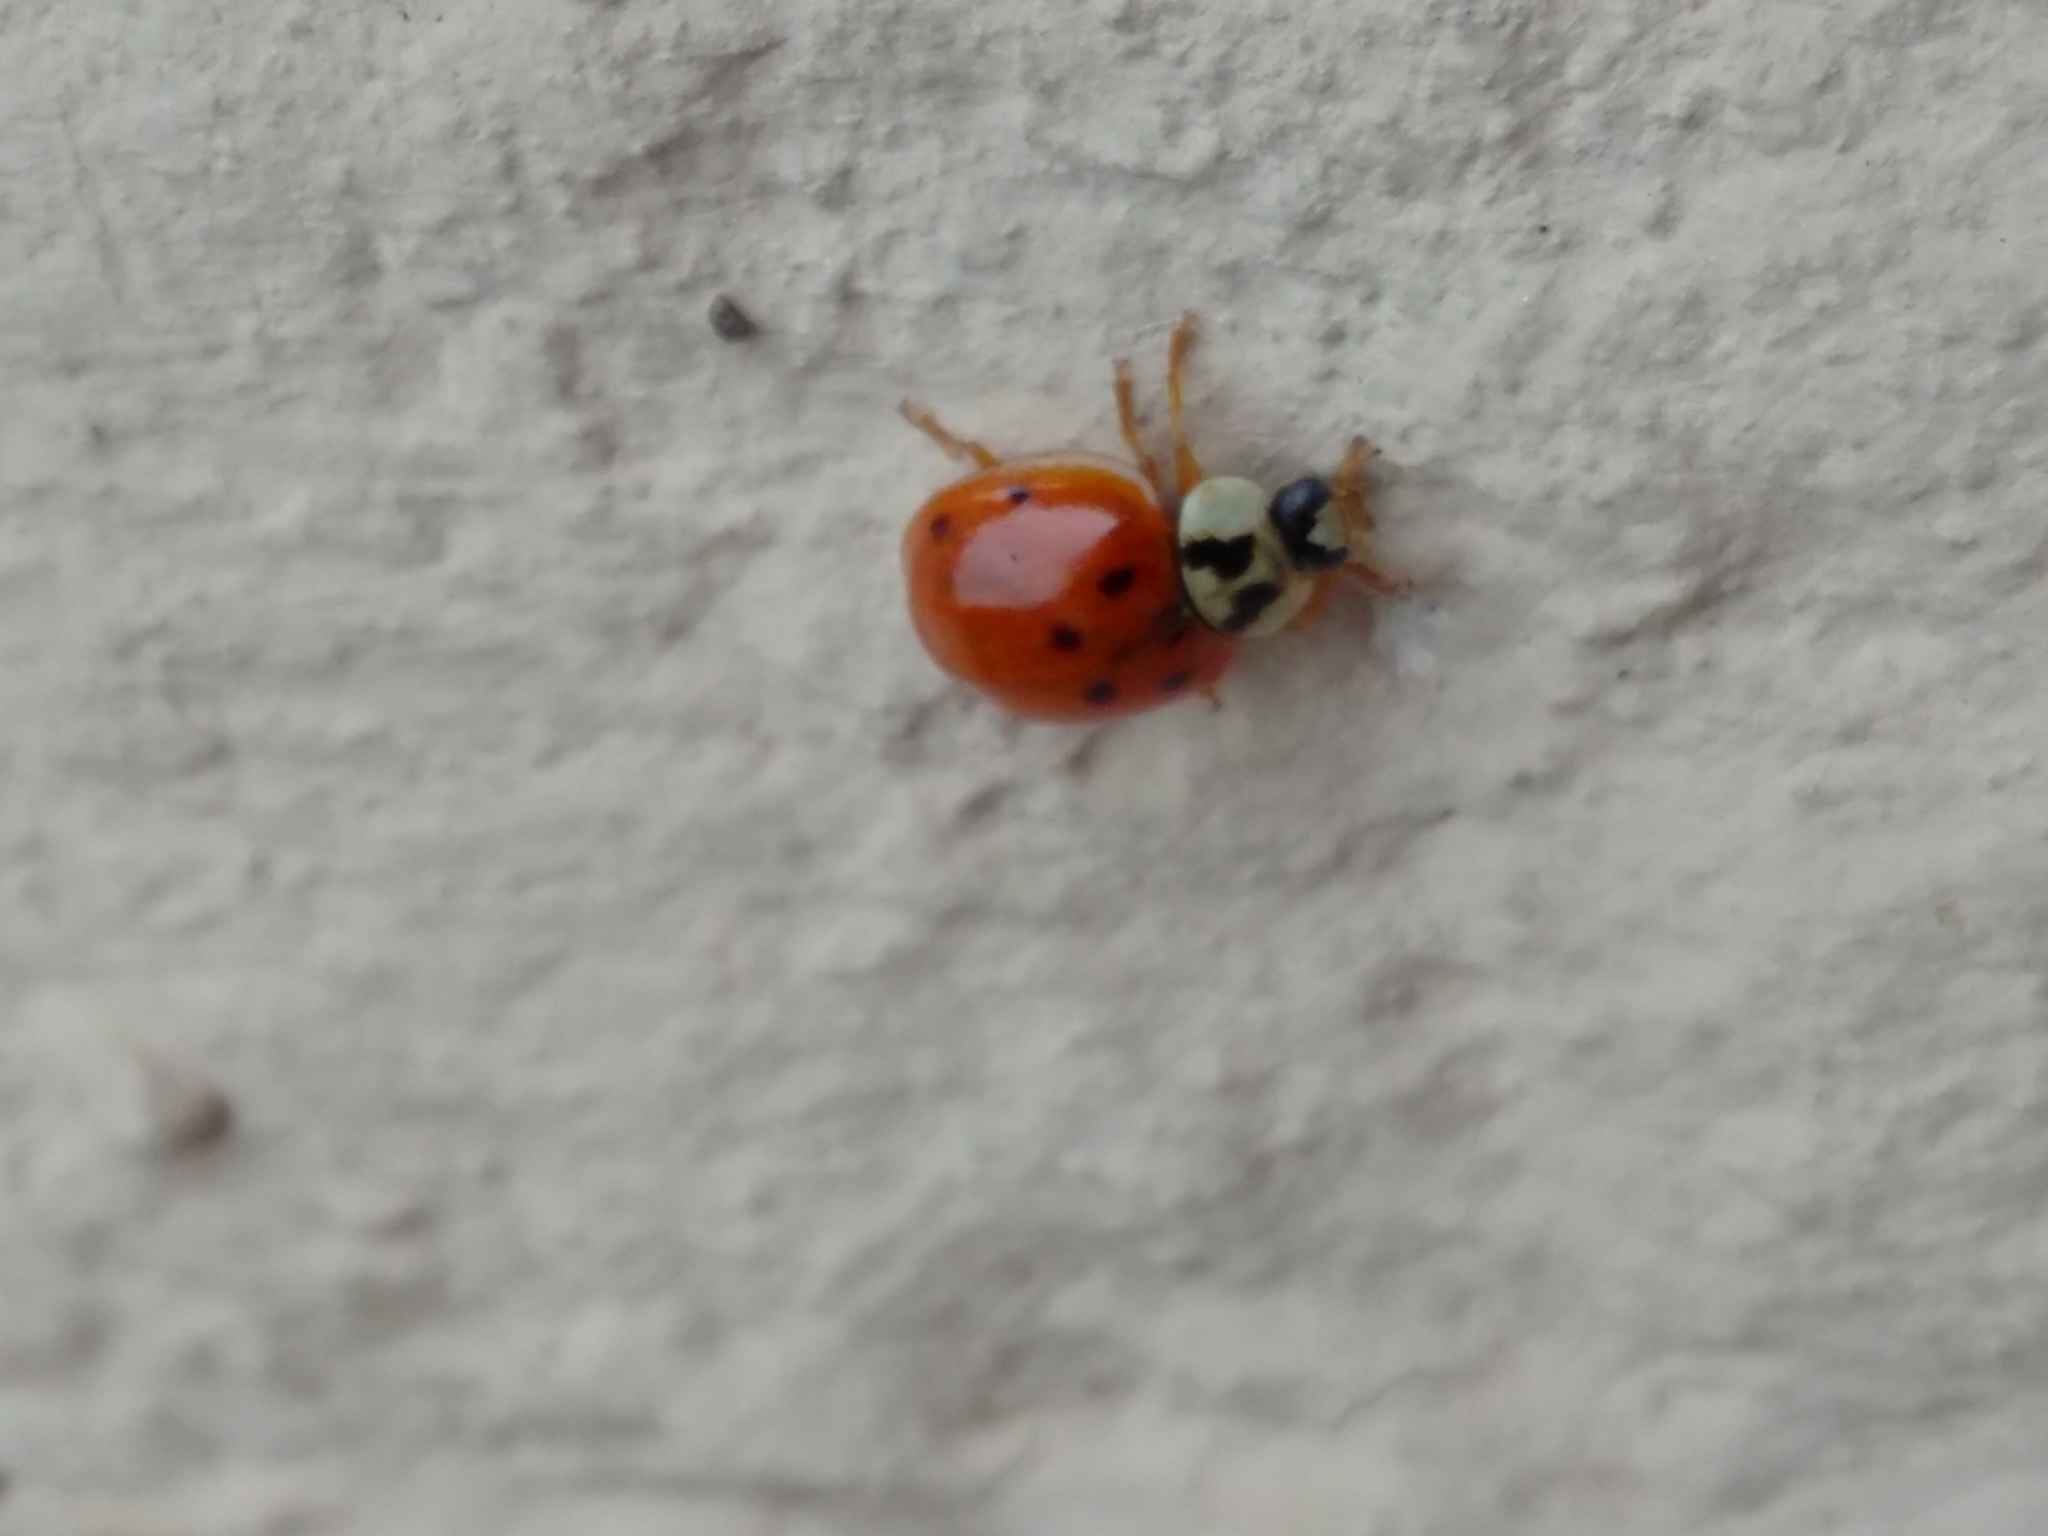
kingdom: Animalia
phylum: Arthropoda
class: Insecta
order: Coleoptera
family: Coccinellidae
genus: Harmonia
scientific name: Harmonia axyridis
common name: Harlequin ladybird
